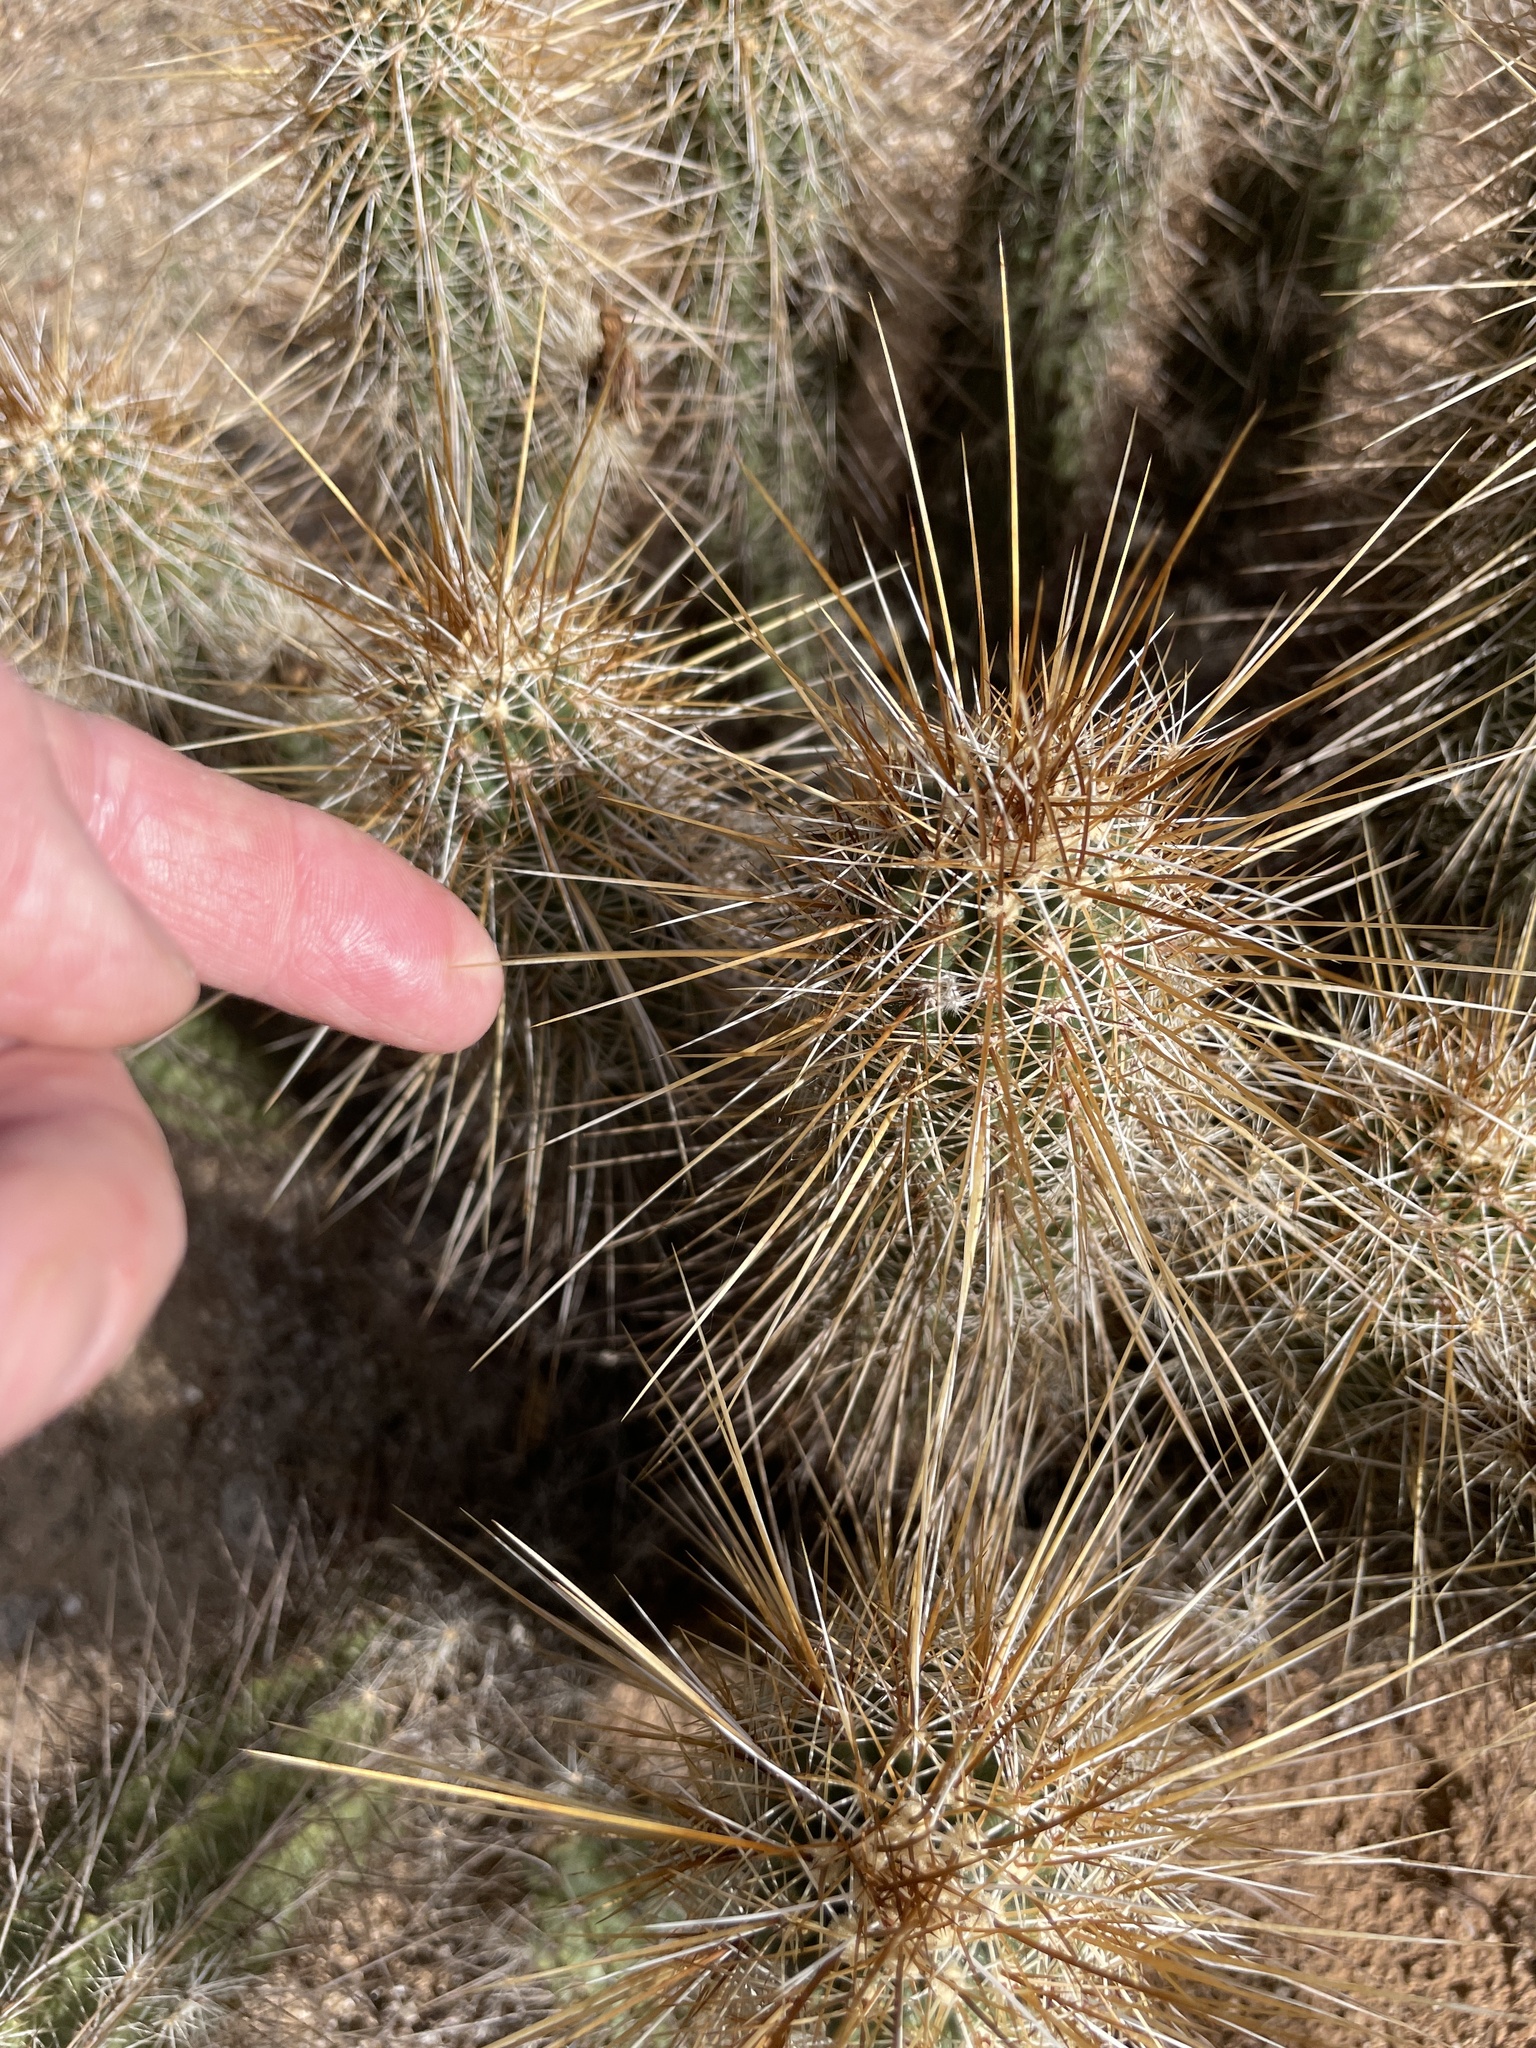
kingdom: Plantae
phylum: Tracheophyta
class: Magnoliopsida
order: Caryophyllales
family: Cactaceae
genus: Echinocereus
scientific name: Echinocereus engelmannii
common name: Engelmann's hedgehog cactus
